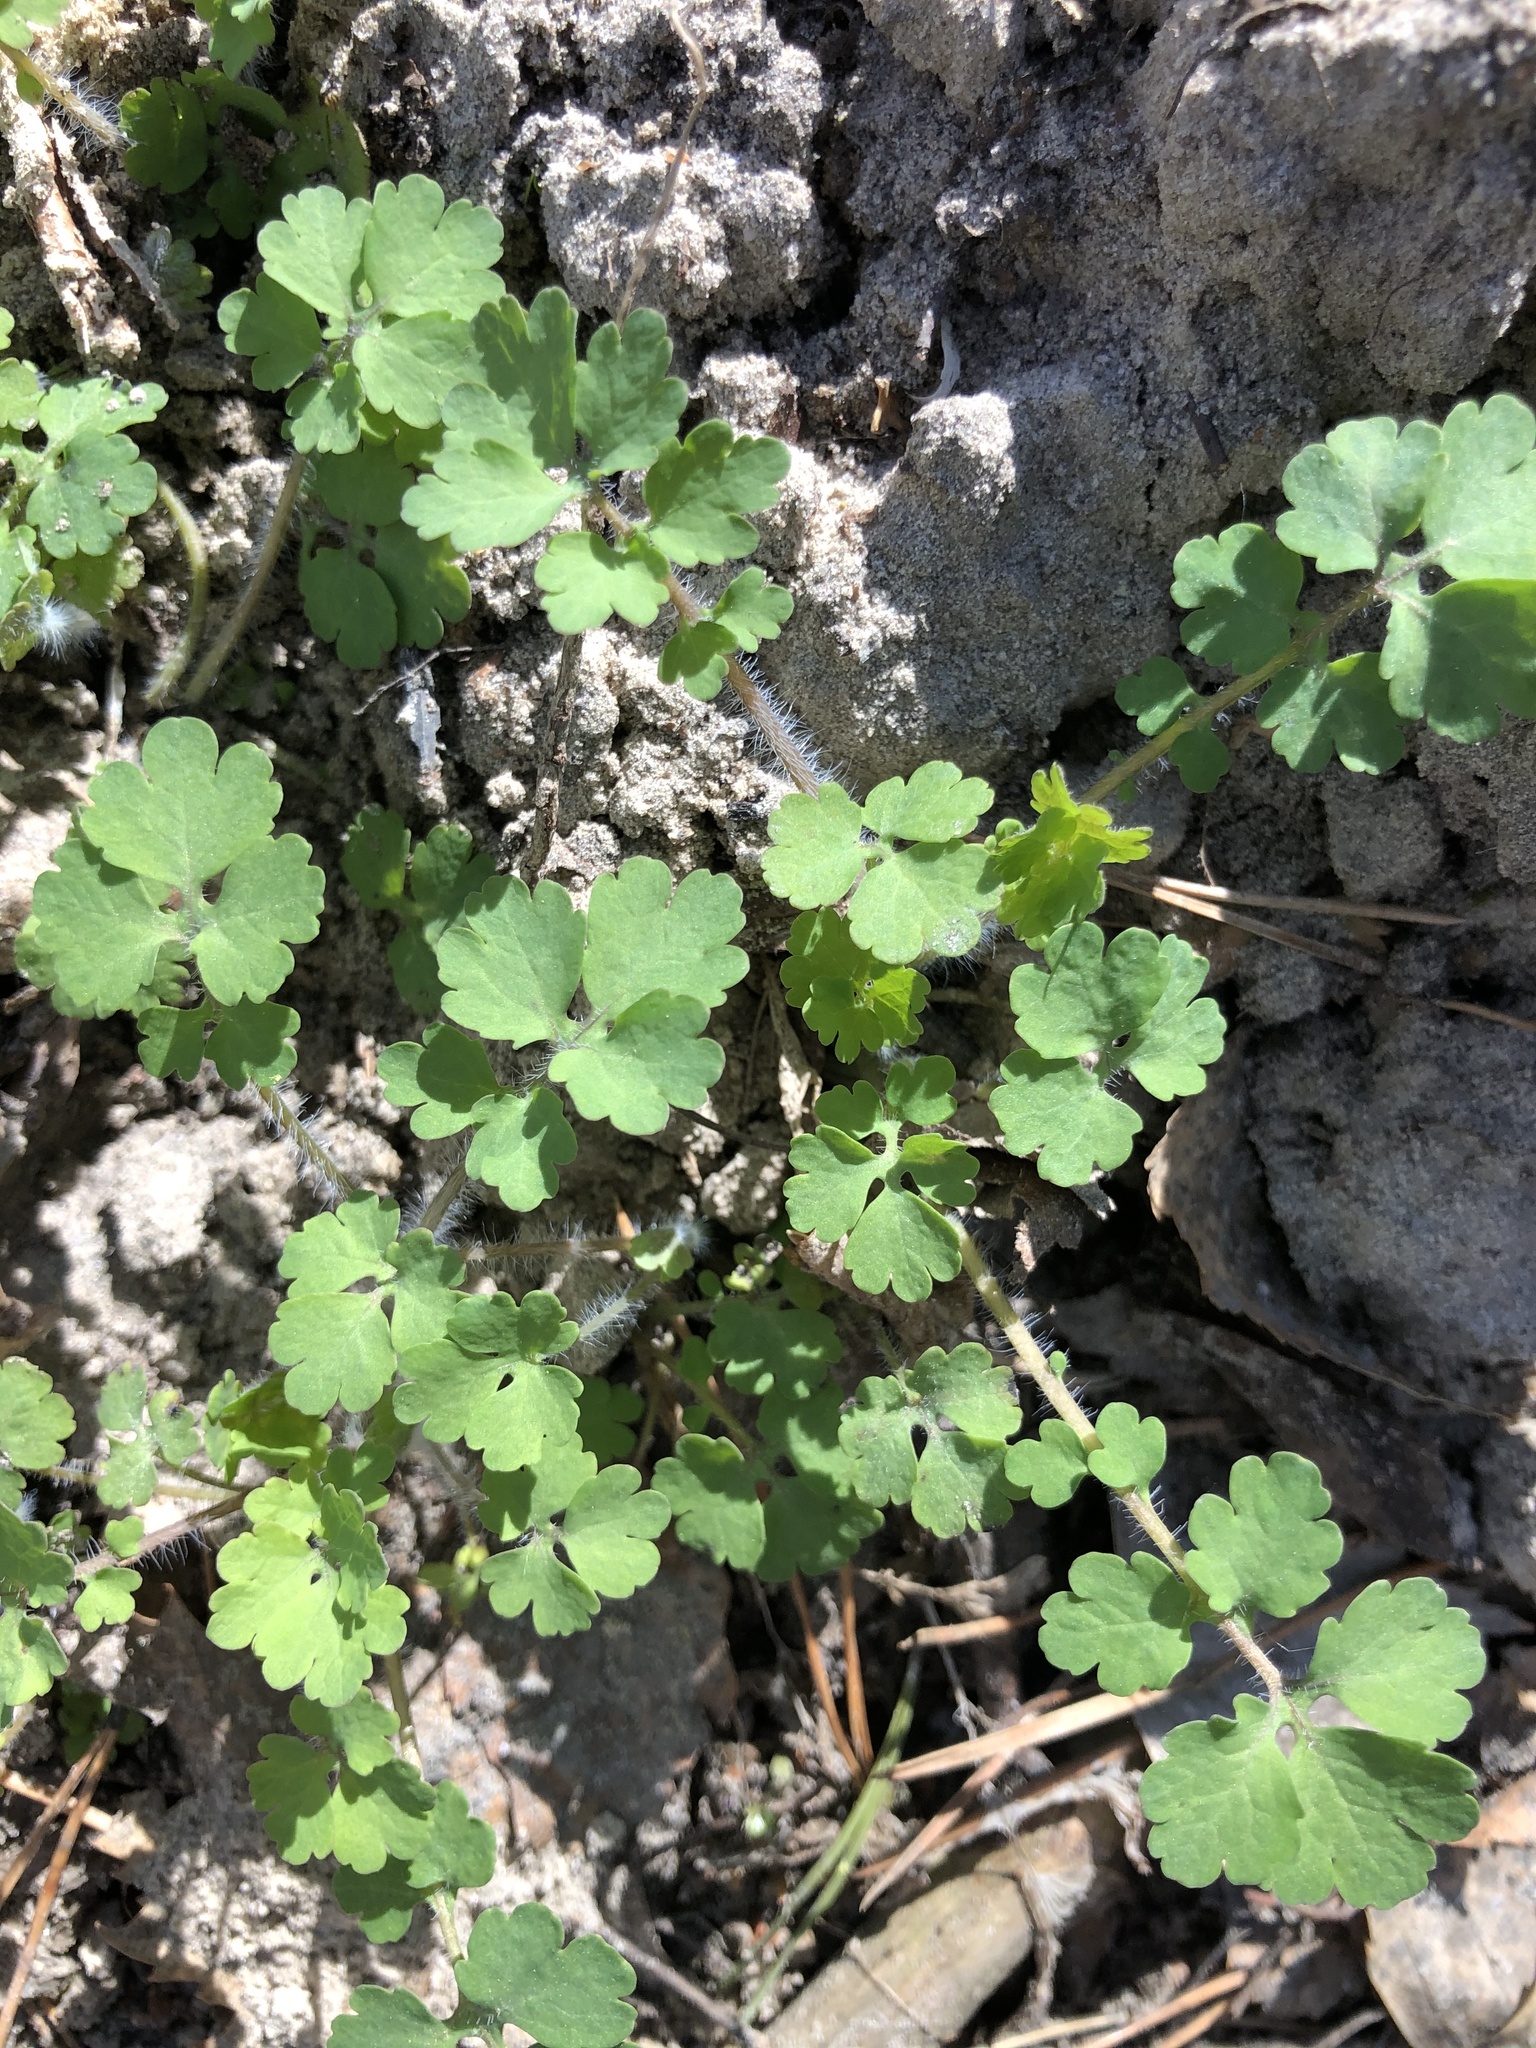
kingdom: Plantae
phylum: Tracheophyta
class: Magnoliopsida
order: Ranunculales
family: Papaveraceae
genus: Chelidonium
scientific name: Chelidonium majus
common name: Greater celandine
